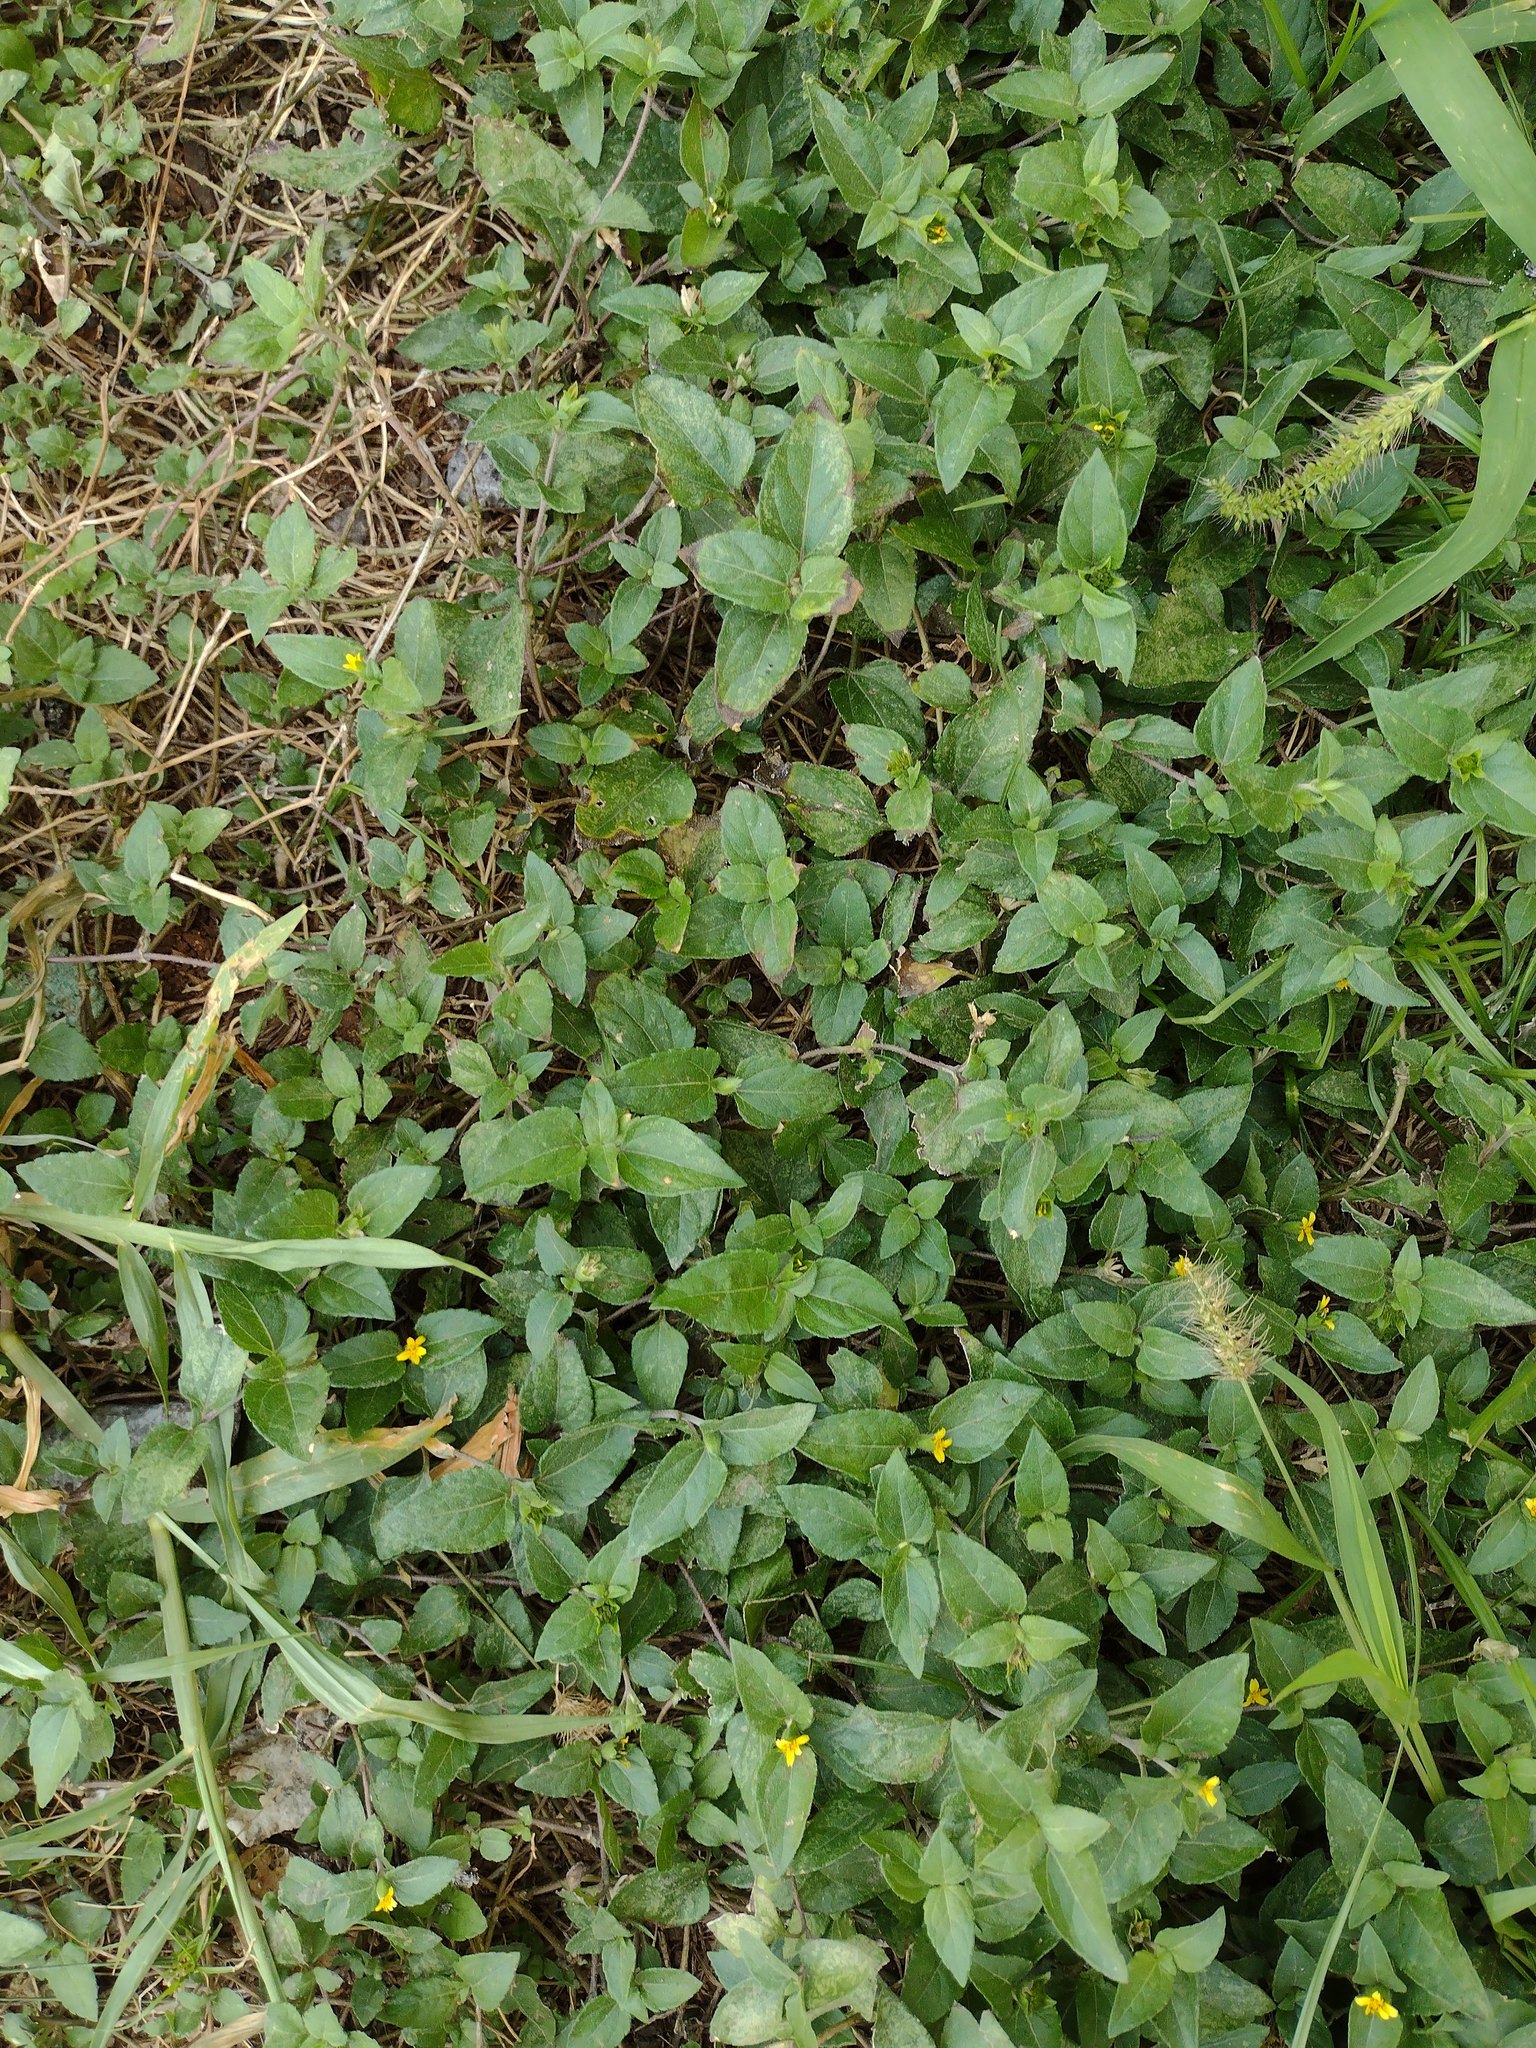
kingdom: Plantae
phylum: Tracheophyta
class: Magnoliopsida
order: Asterales
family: Asteraceae
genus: Calyptocarpus
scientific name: Calyptocarpus vialis
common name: Straggler daisy
